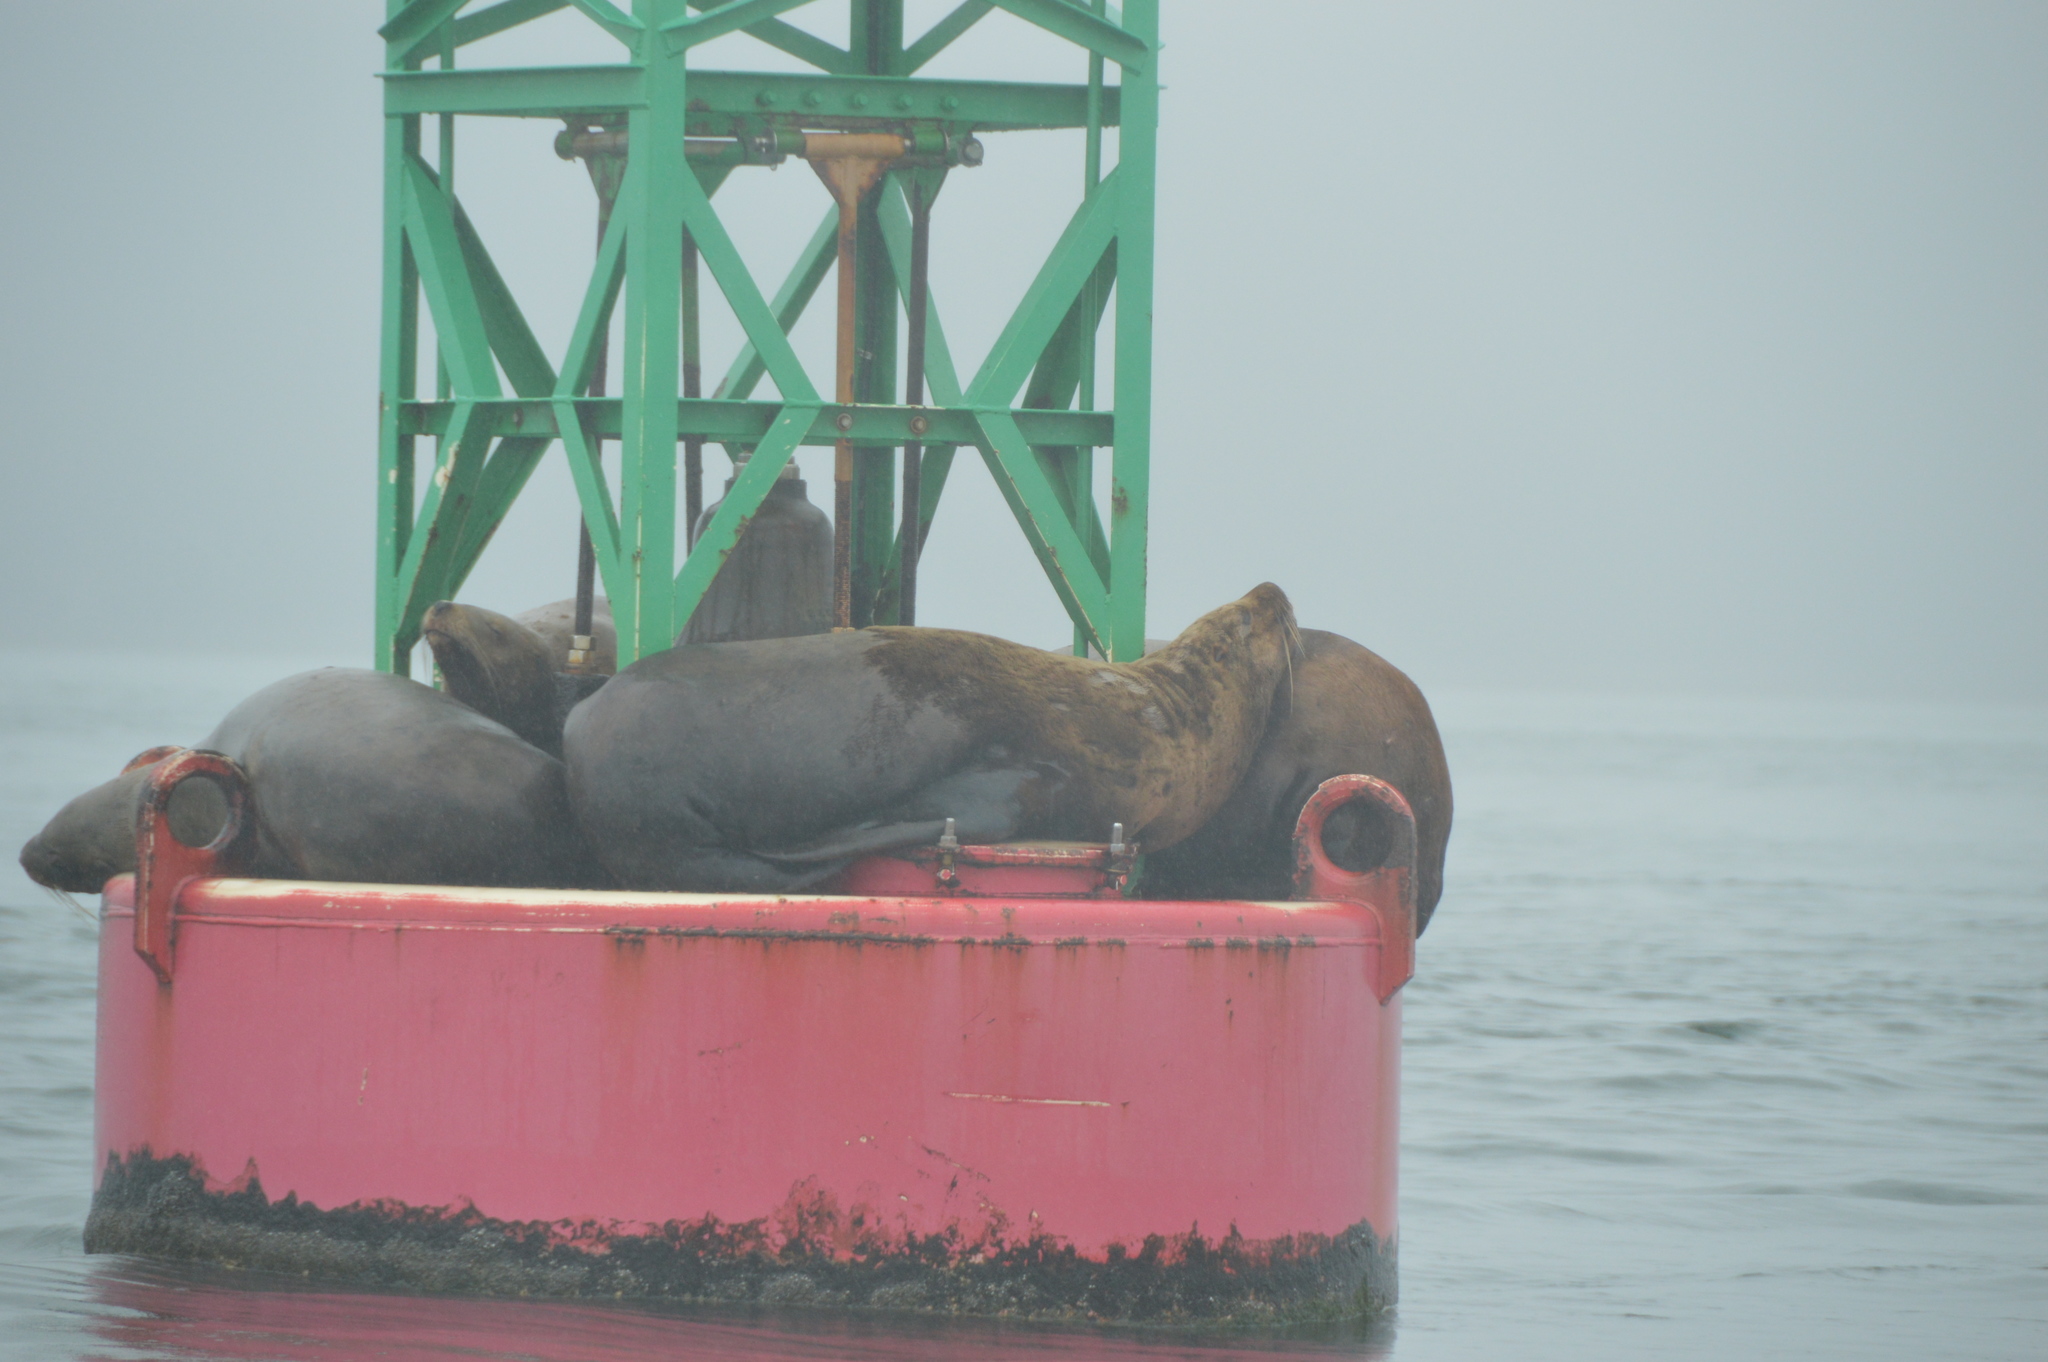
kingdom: Animalia
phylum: Chordata
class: Mammalia
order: Carnivora
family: Otariidae
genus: Eumetopias
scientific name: Eumetopias jubatus
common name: Steller sea lion
